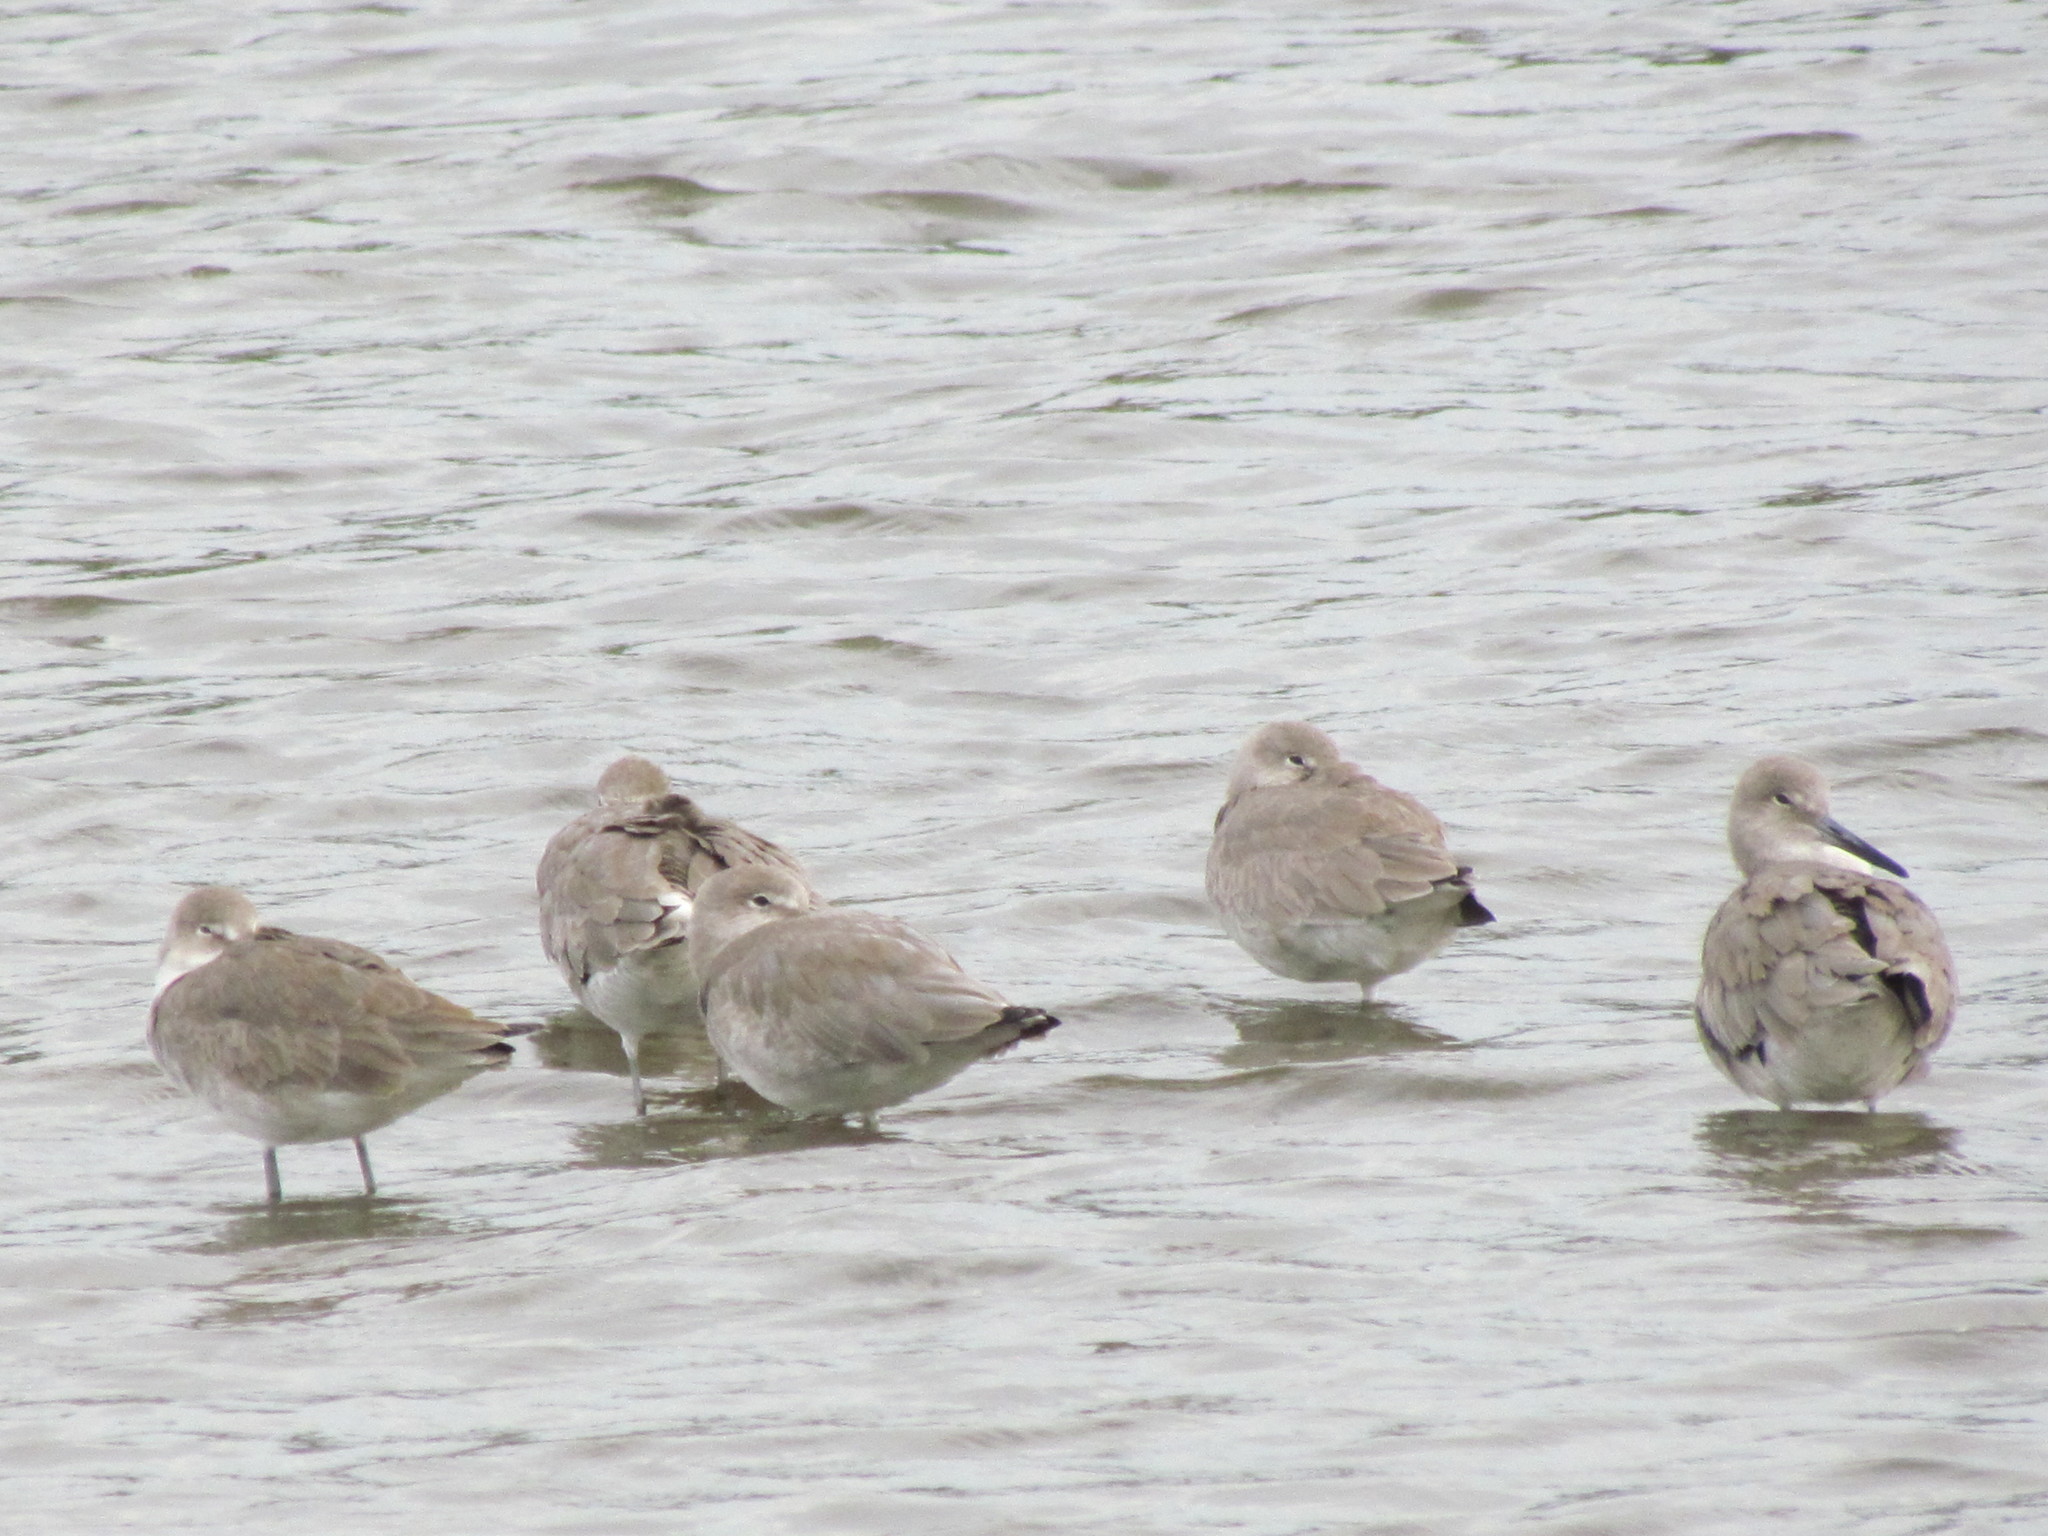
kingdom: Animalia
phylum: Chordata
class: Aves
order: Charadriiformes
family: Scolopacidae
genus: Tringa
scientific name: Tringa semipalmata
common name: Willet
